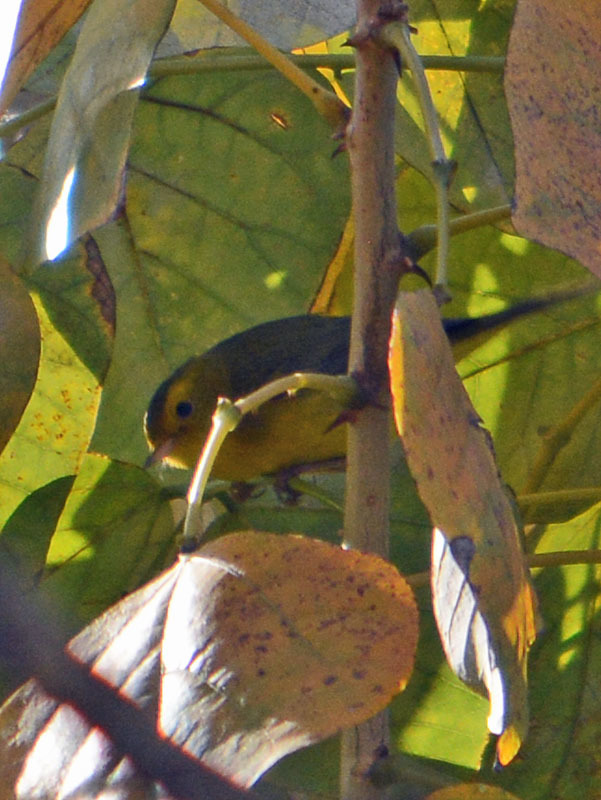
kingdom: Animalia
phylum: Chordata
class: Aves
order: Passeriformes
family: Parulidae
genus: Cardellina
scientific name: Cardellina pusilla
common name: Wilson's warbler
